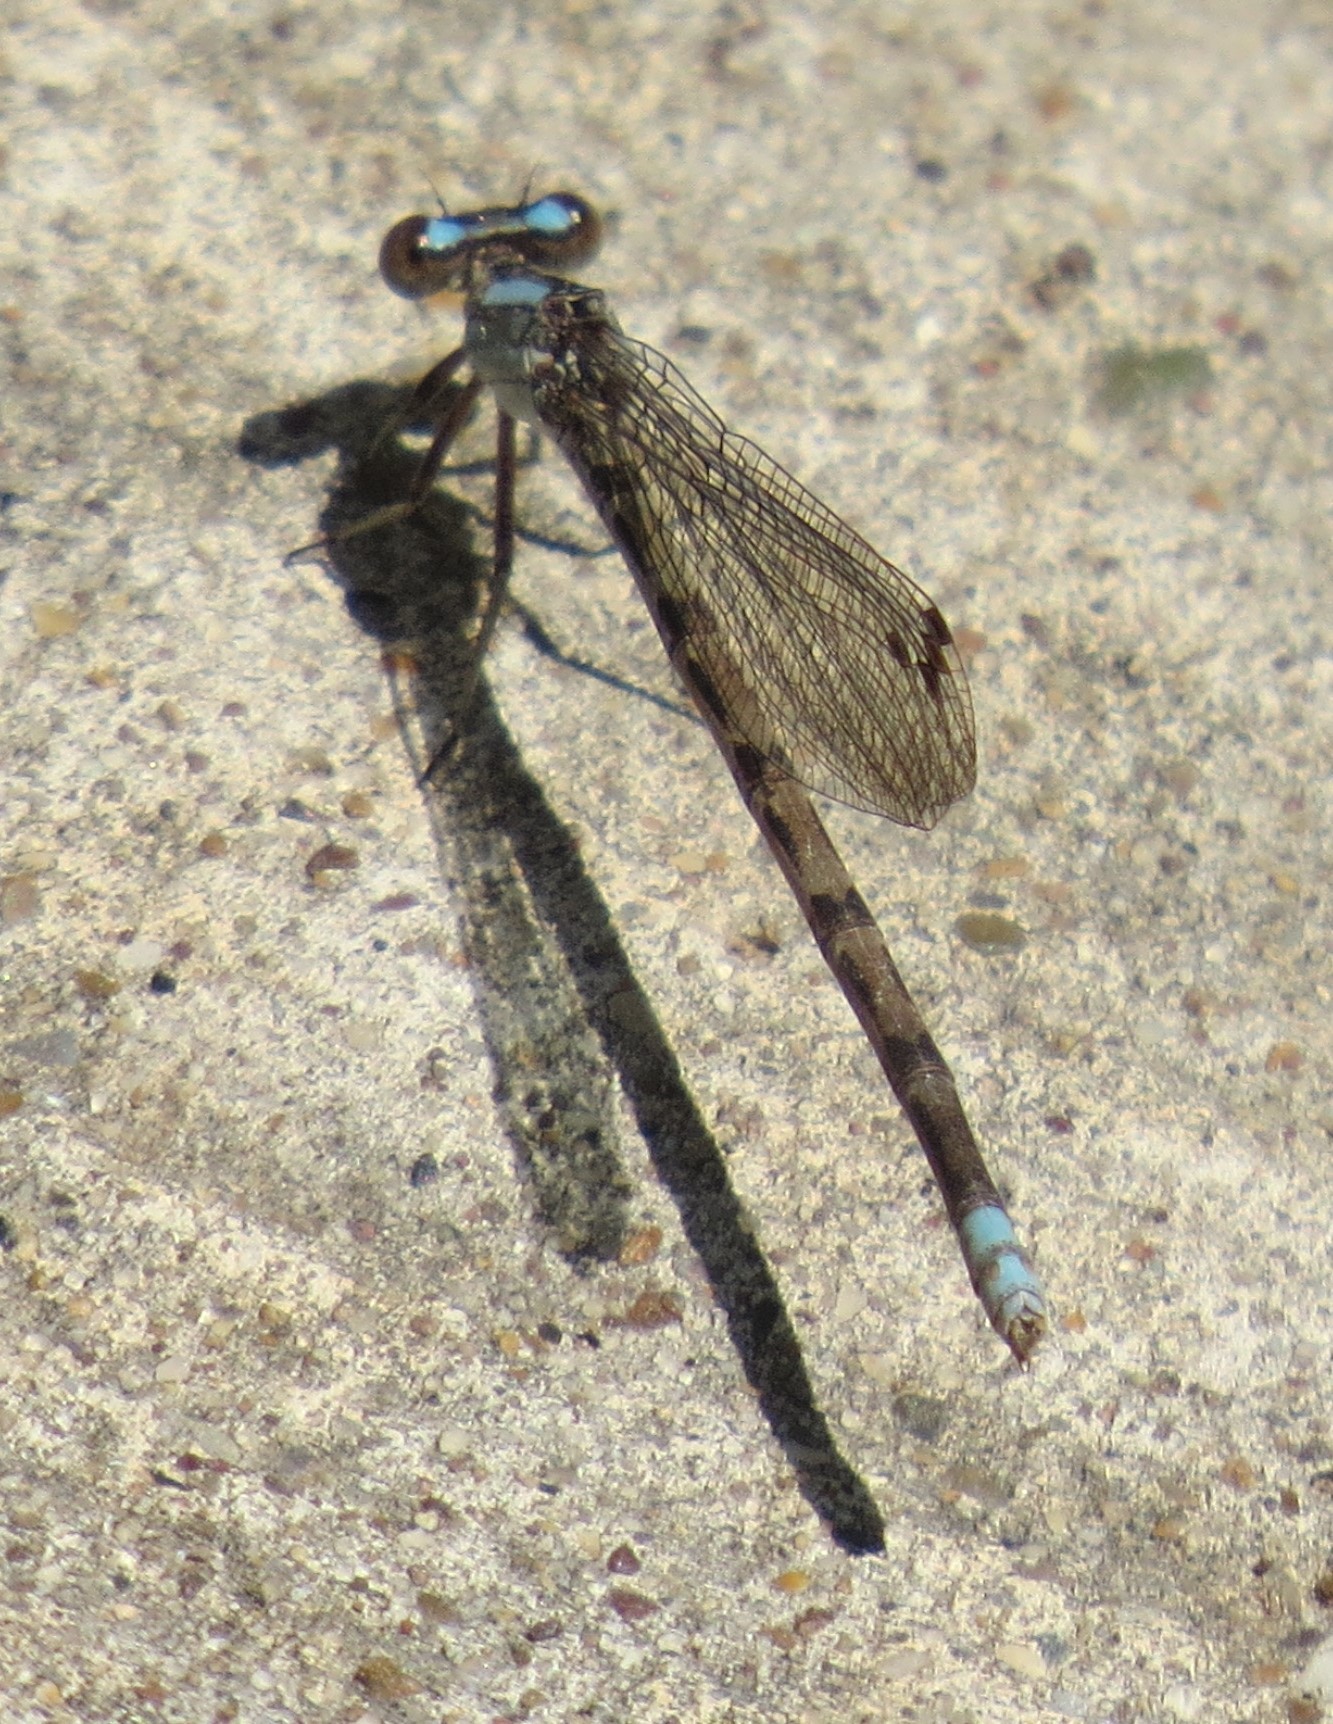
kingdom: Animalia
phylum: Arthropoda
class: Insecta
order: Odonata
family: Coenagrionidae
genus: Argia
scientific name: Argia immunda
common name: Kiowa dancer
